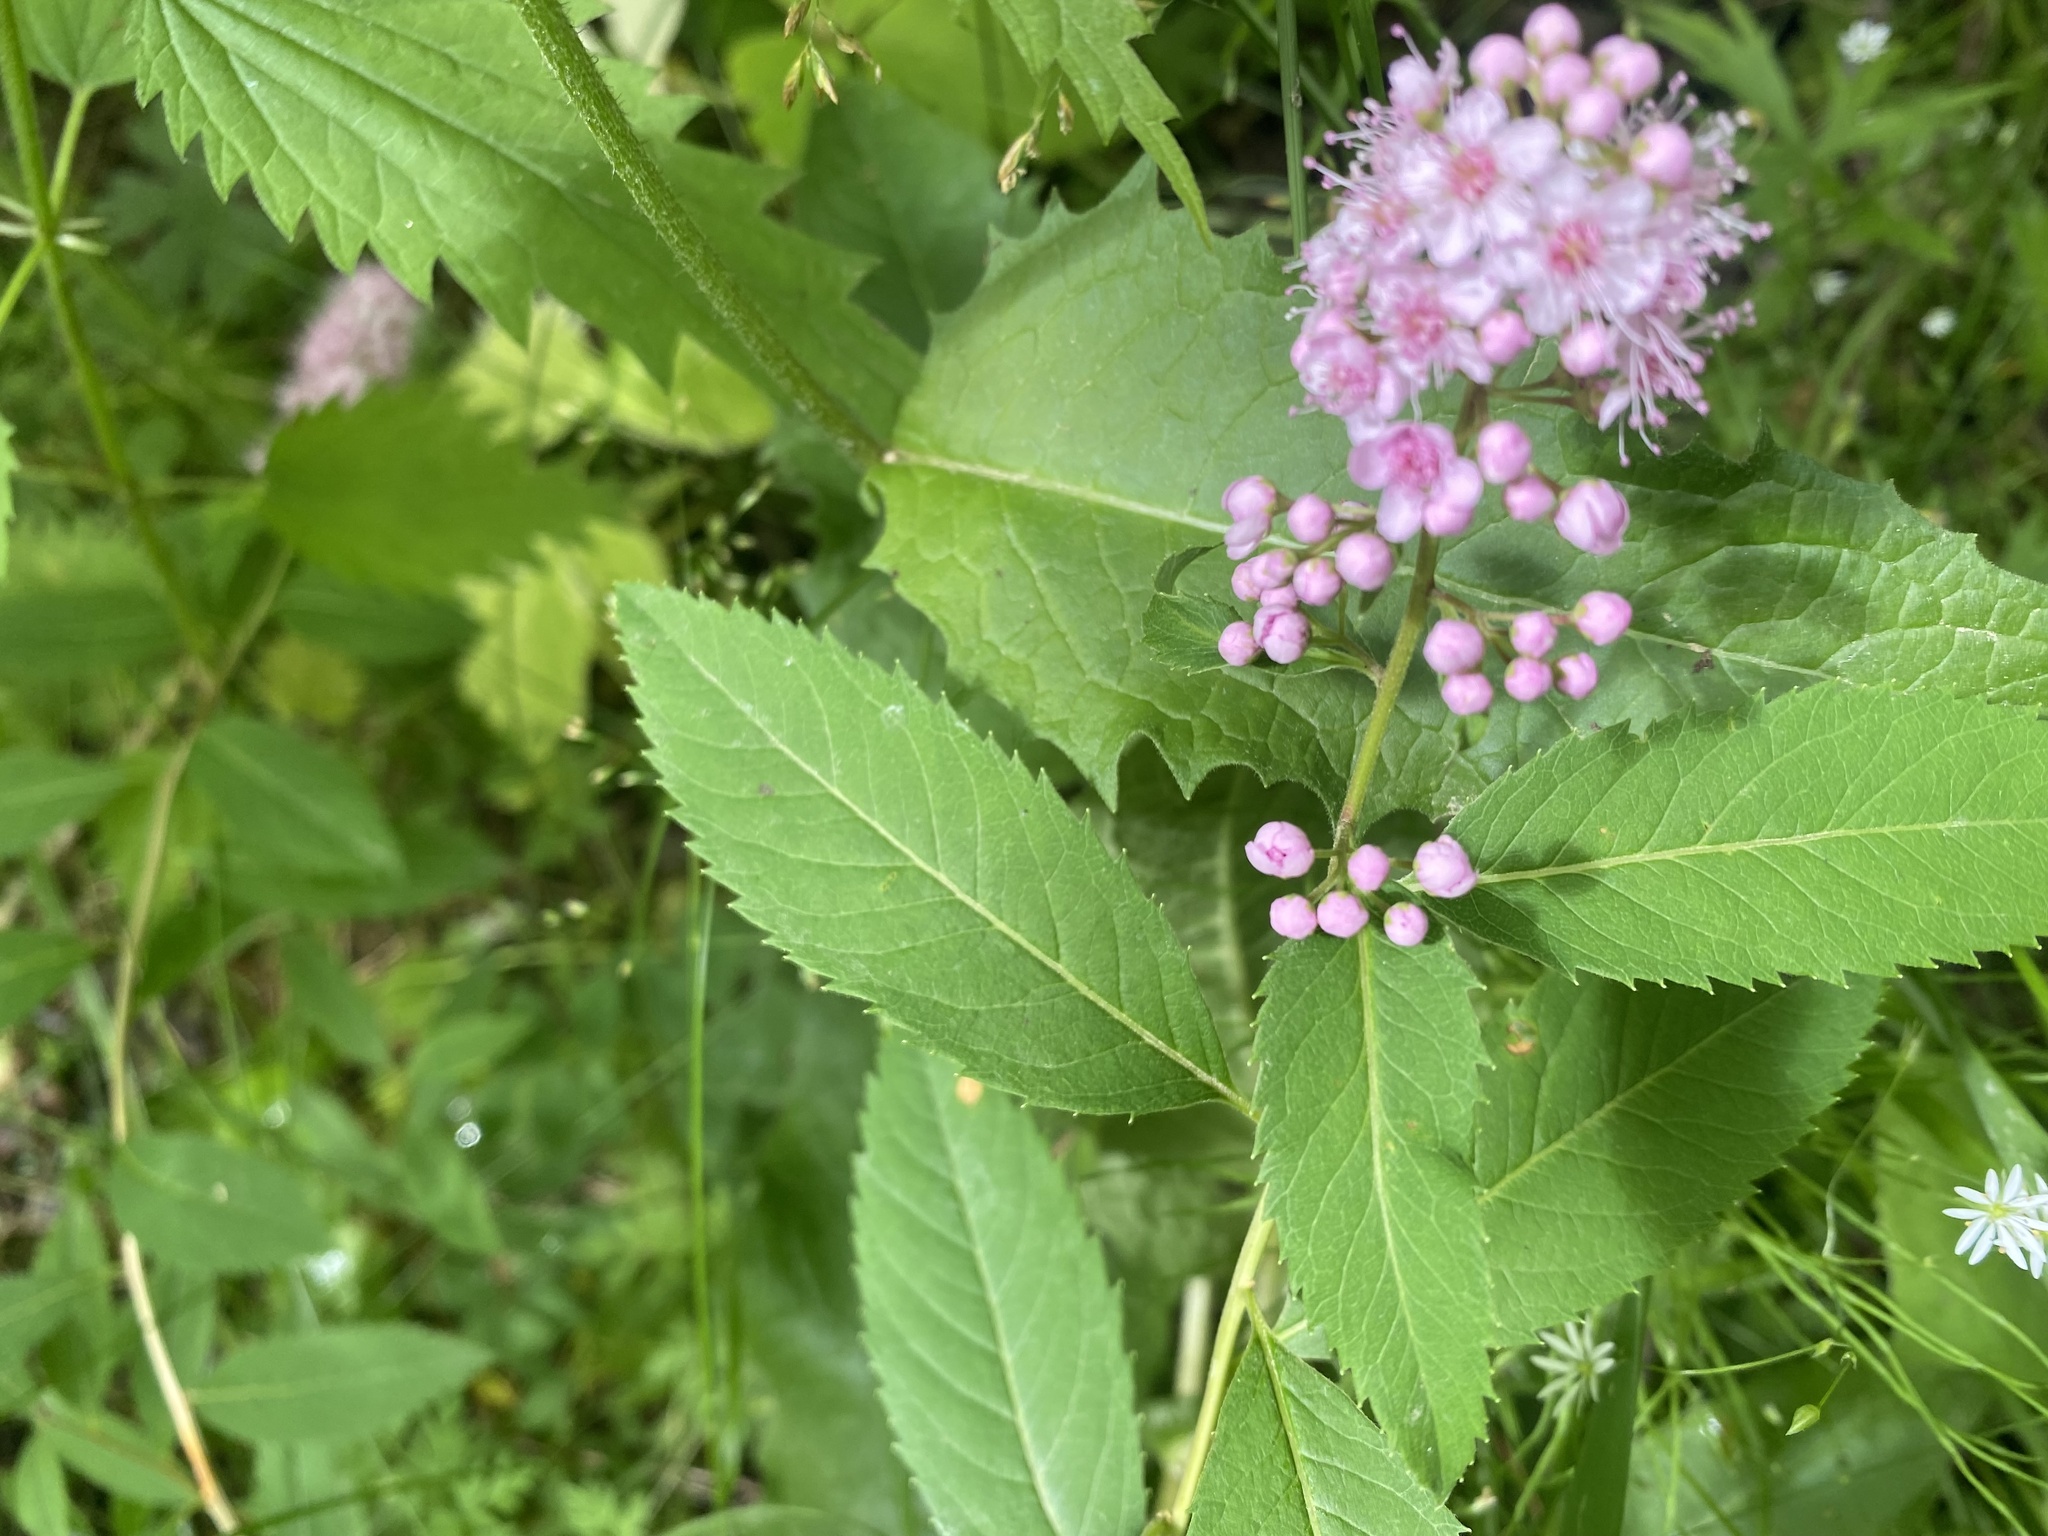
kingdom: Plantae
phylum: Tracheophyta
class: Magnoliopsida
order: Rosales
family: Rosaceae
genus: Spiraea
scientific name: Spiraea salicifolia
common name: Bridewort
